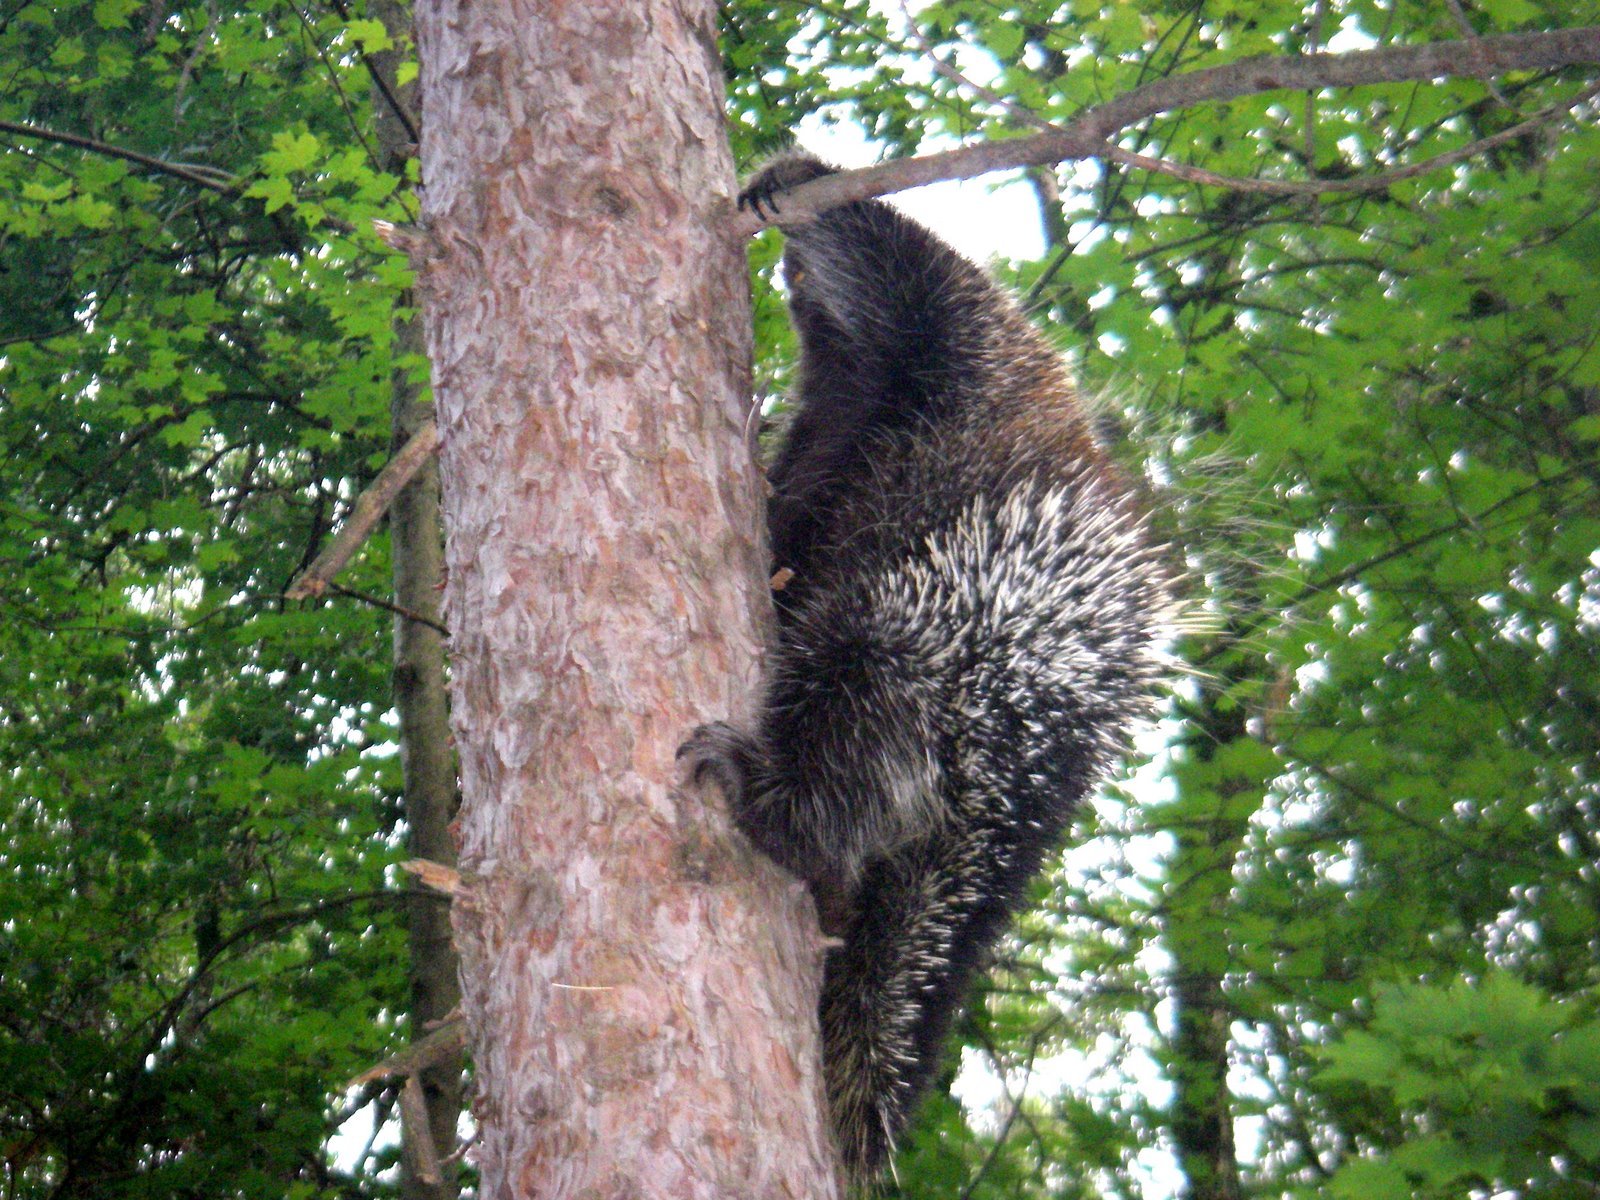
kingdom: Animalia
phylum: Chordata
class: Mammalia
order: Rodentia
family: Erethizontidae
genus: Erethizon
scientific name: Erethizon dorsatus
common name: North american porcupine
